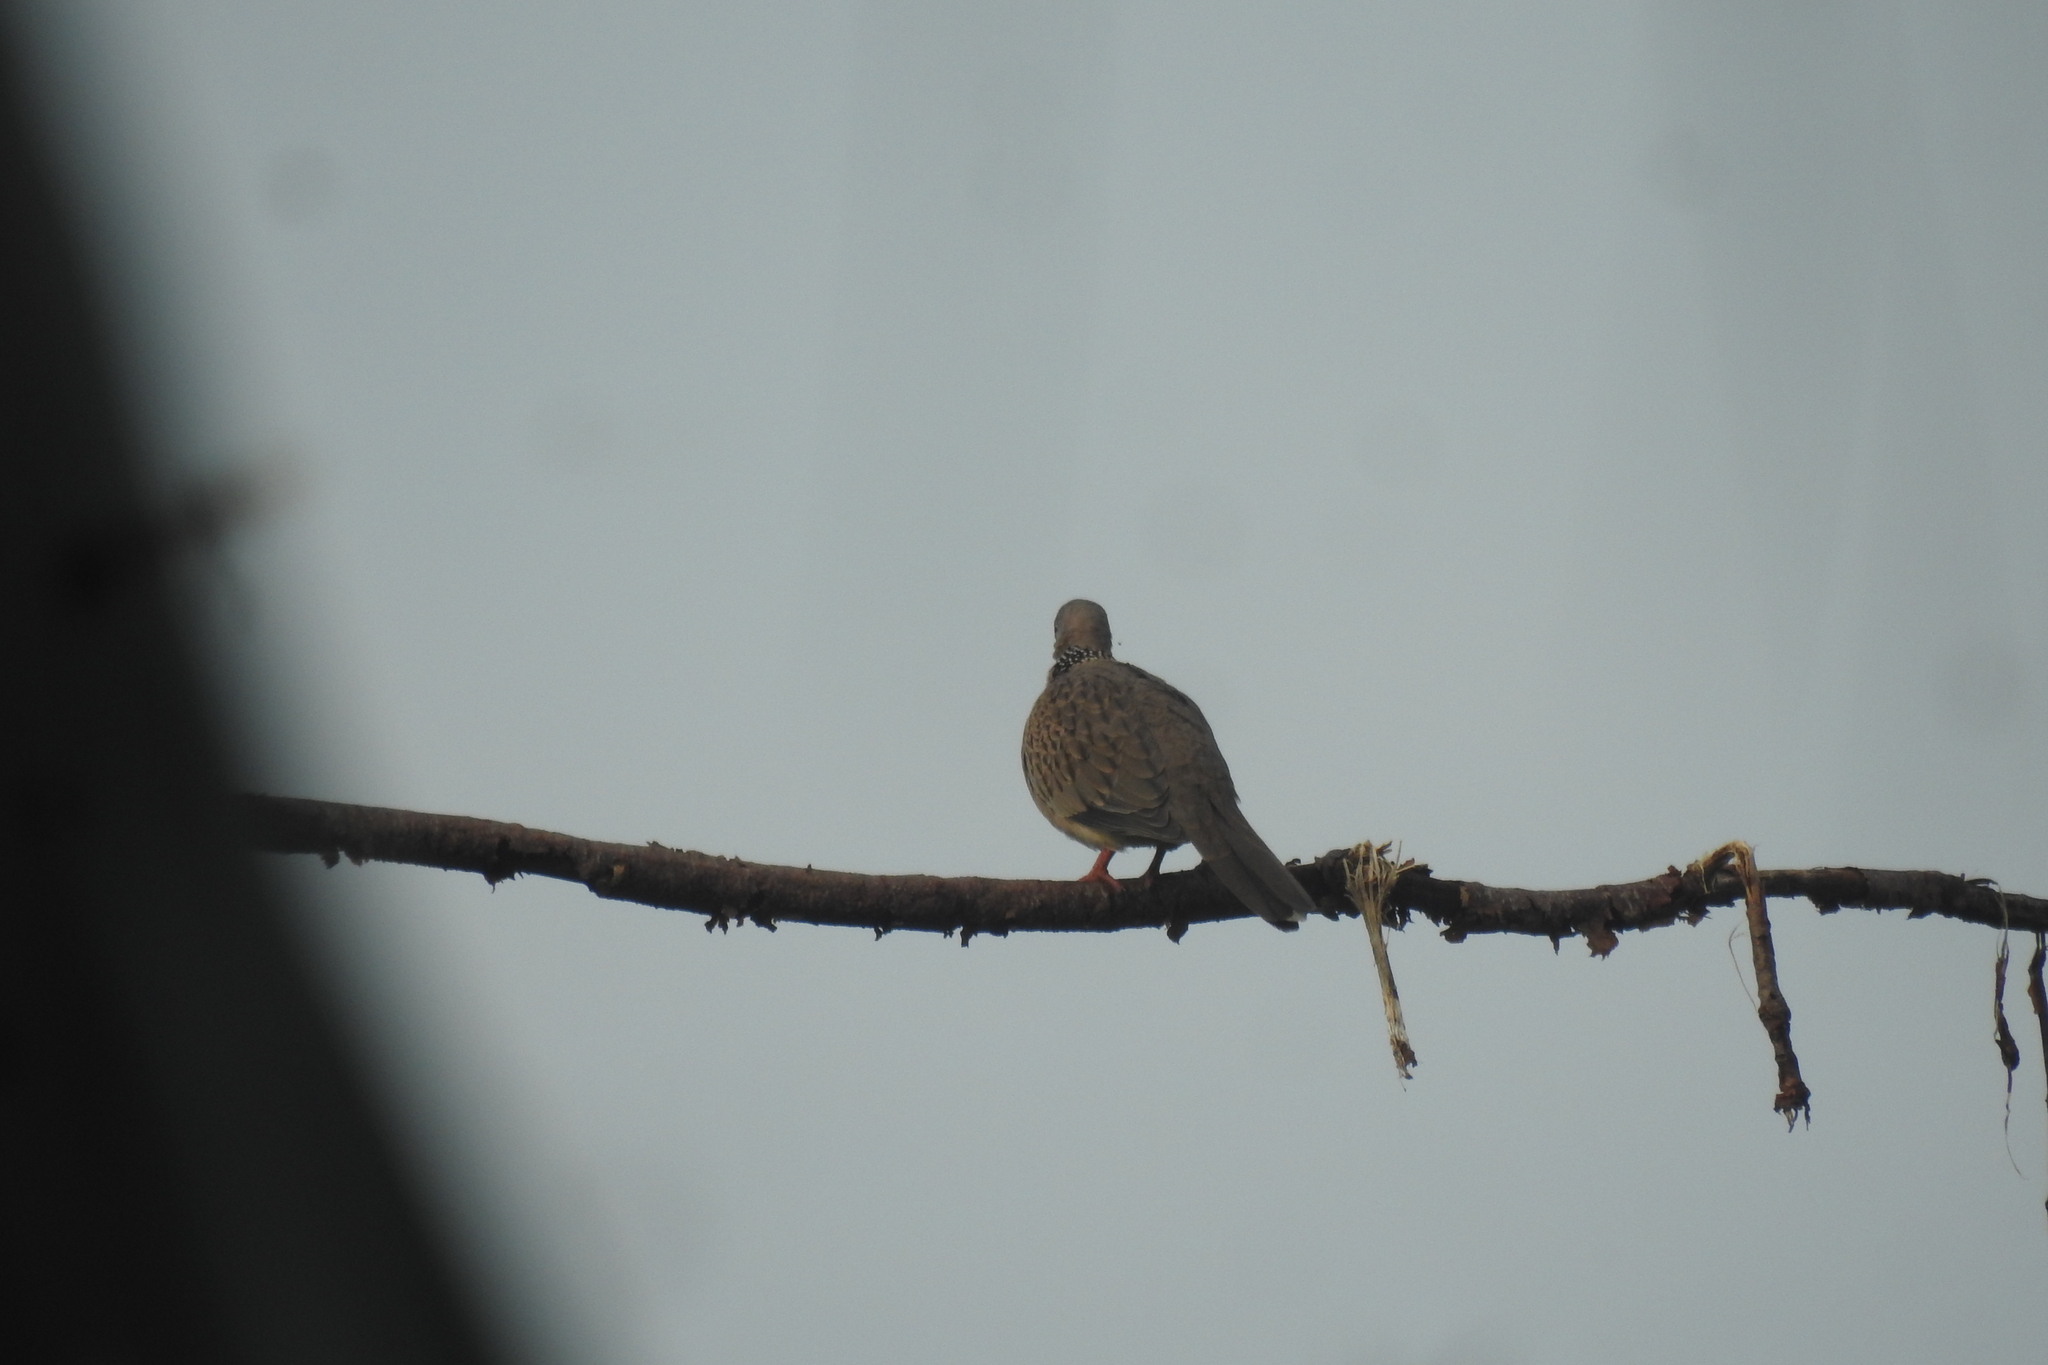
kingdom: Animalia
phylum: Chordata
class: Aves
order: Columbiformes
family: Columbidae
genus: Spilopelia
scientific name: Spilopelia chinensis
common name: Spotted dove
